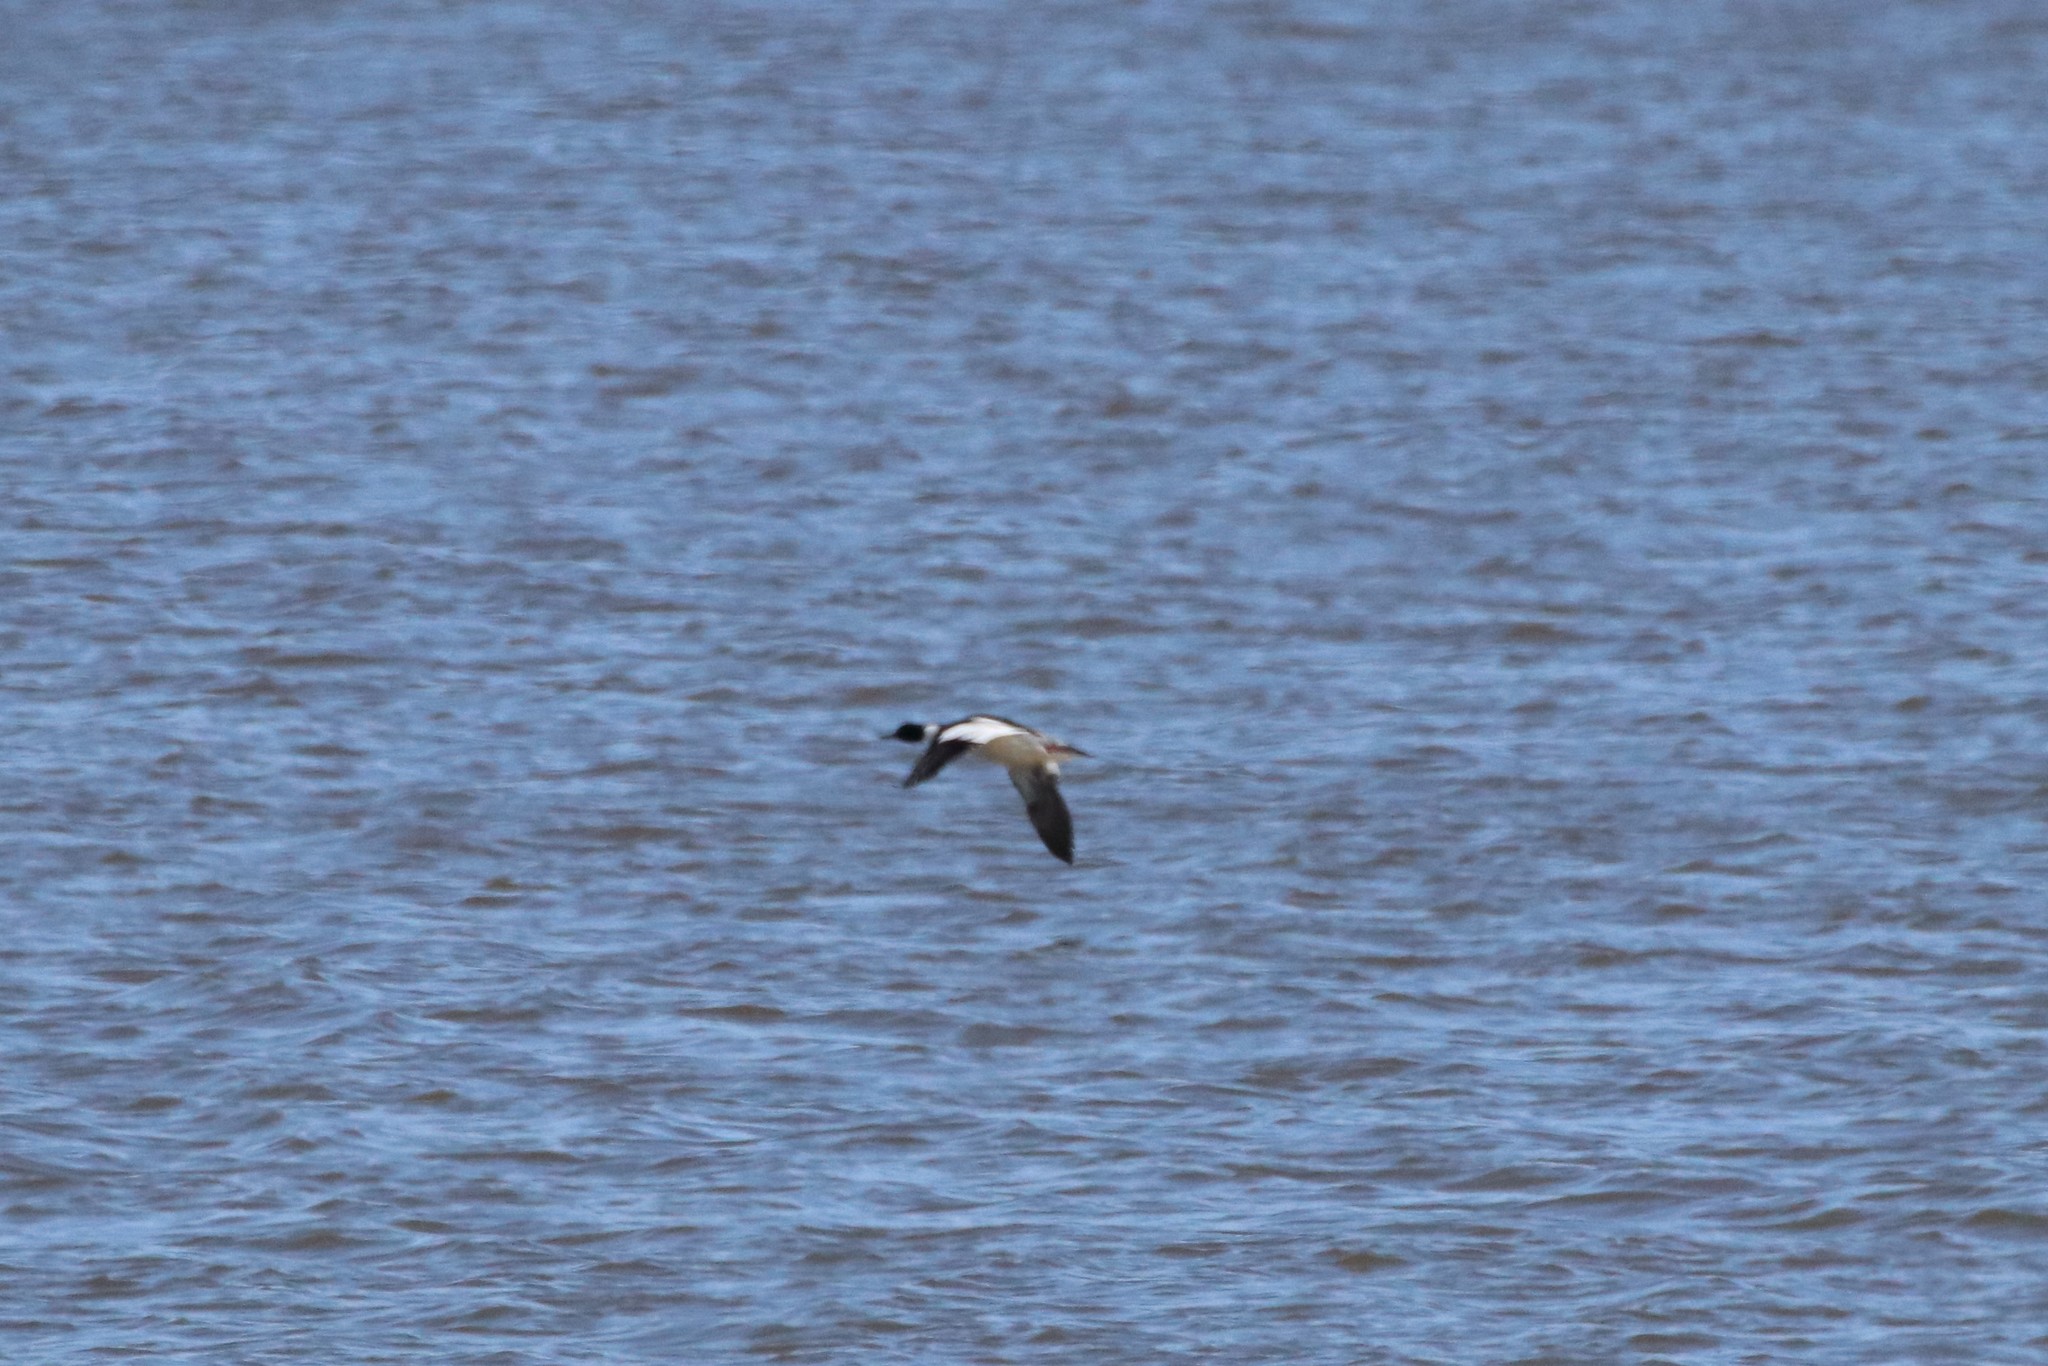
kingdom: Animalia
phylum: Chordata
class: Aves
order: Anseriformes
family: Anatidae
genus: Mergus
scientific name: Mergus serrator
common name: Red-breasted merganser
